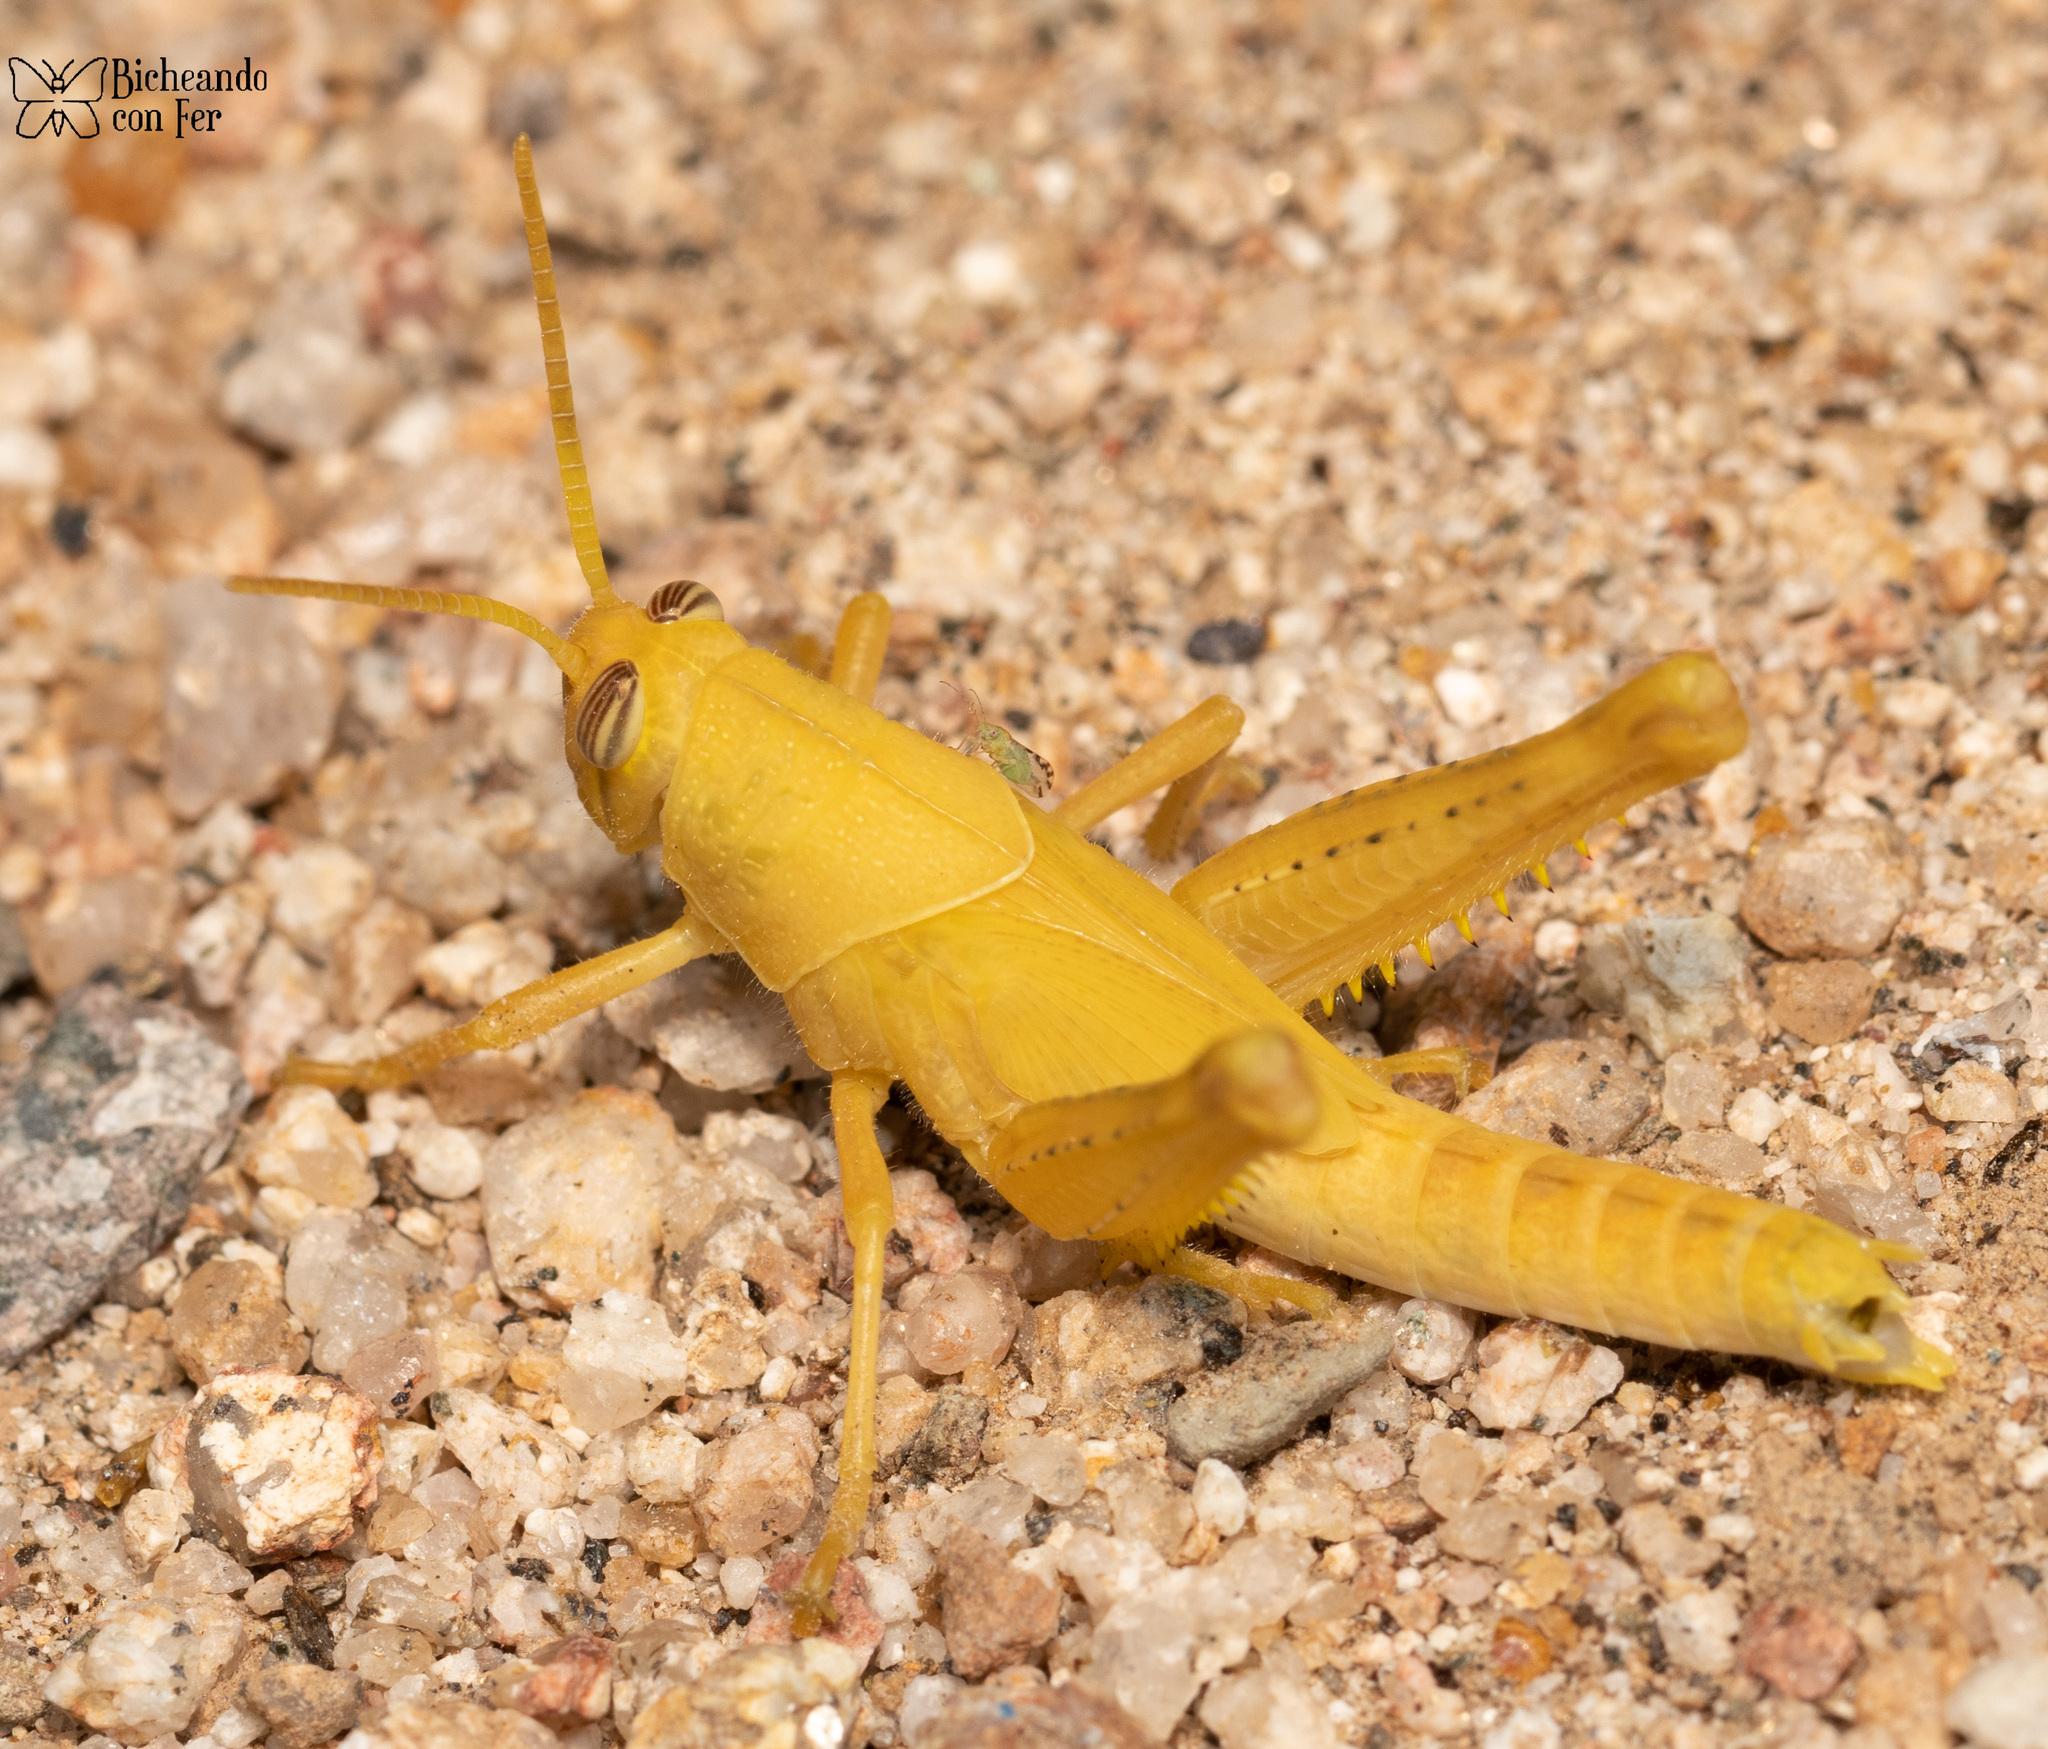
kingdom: Animalia
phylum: Arthropoda
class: Insecta
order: Orthoptera
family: Acrididae
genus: Schistocerca
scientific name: Schistocerca nitens
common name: Vagrant grasshopper
